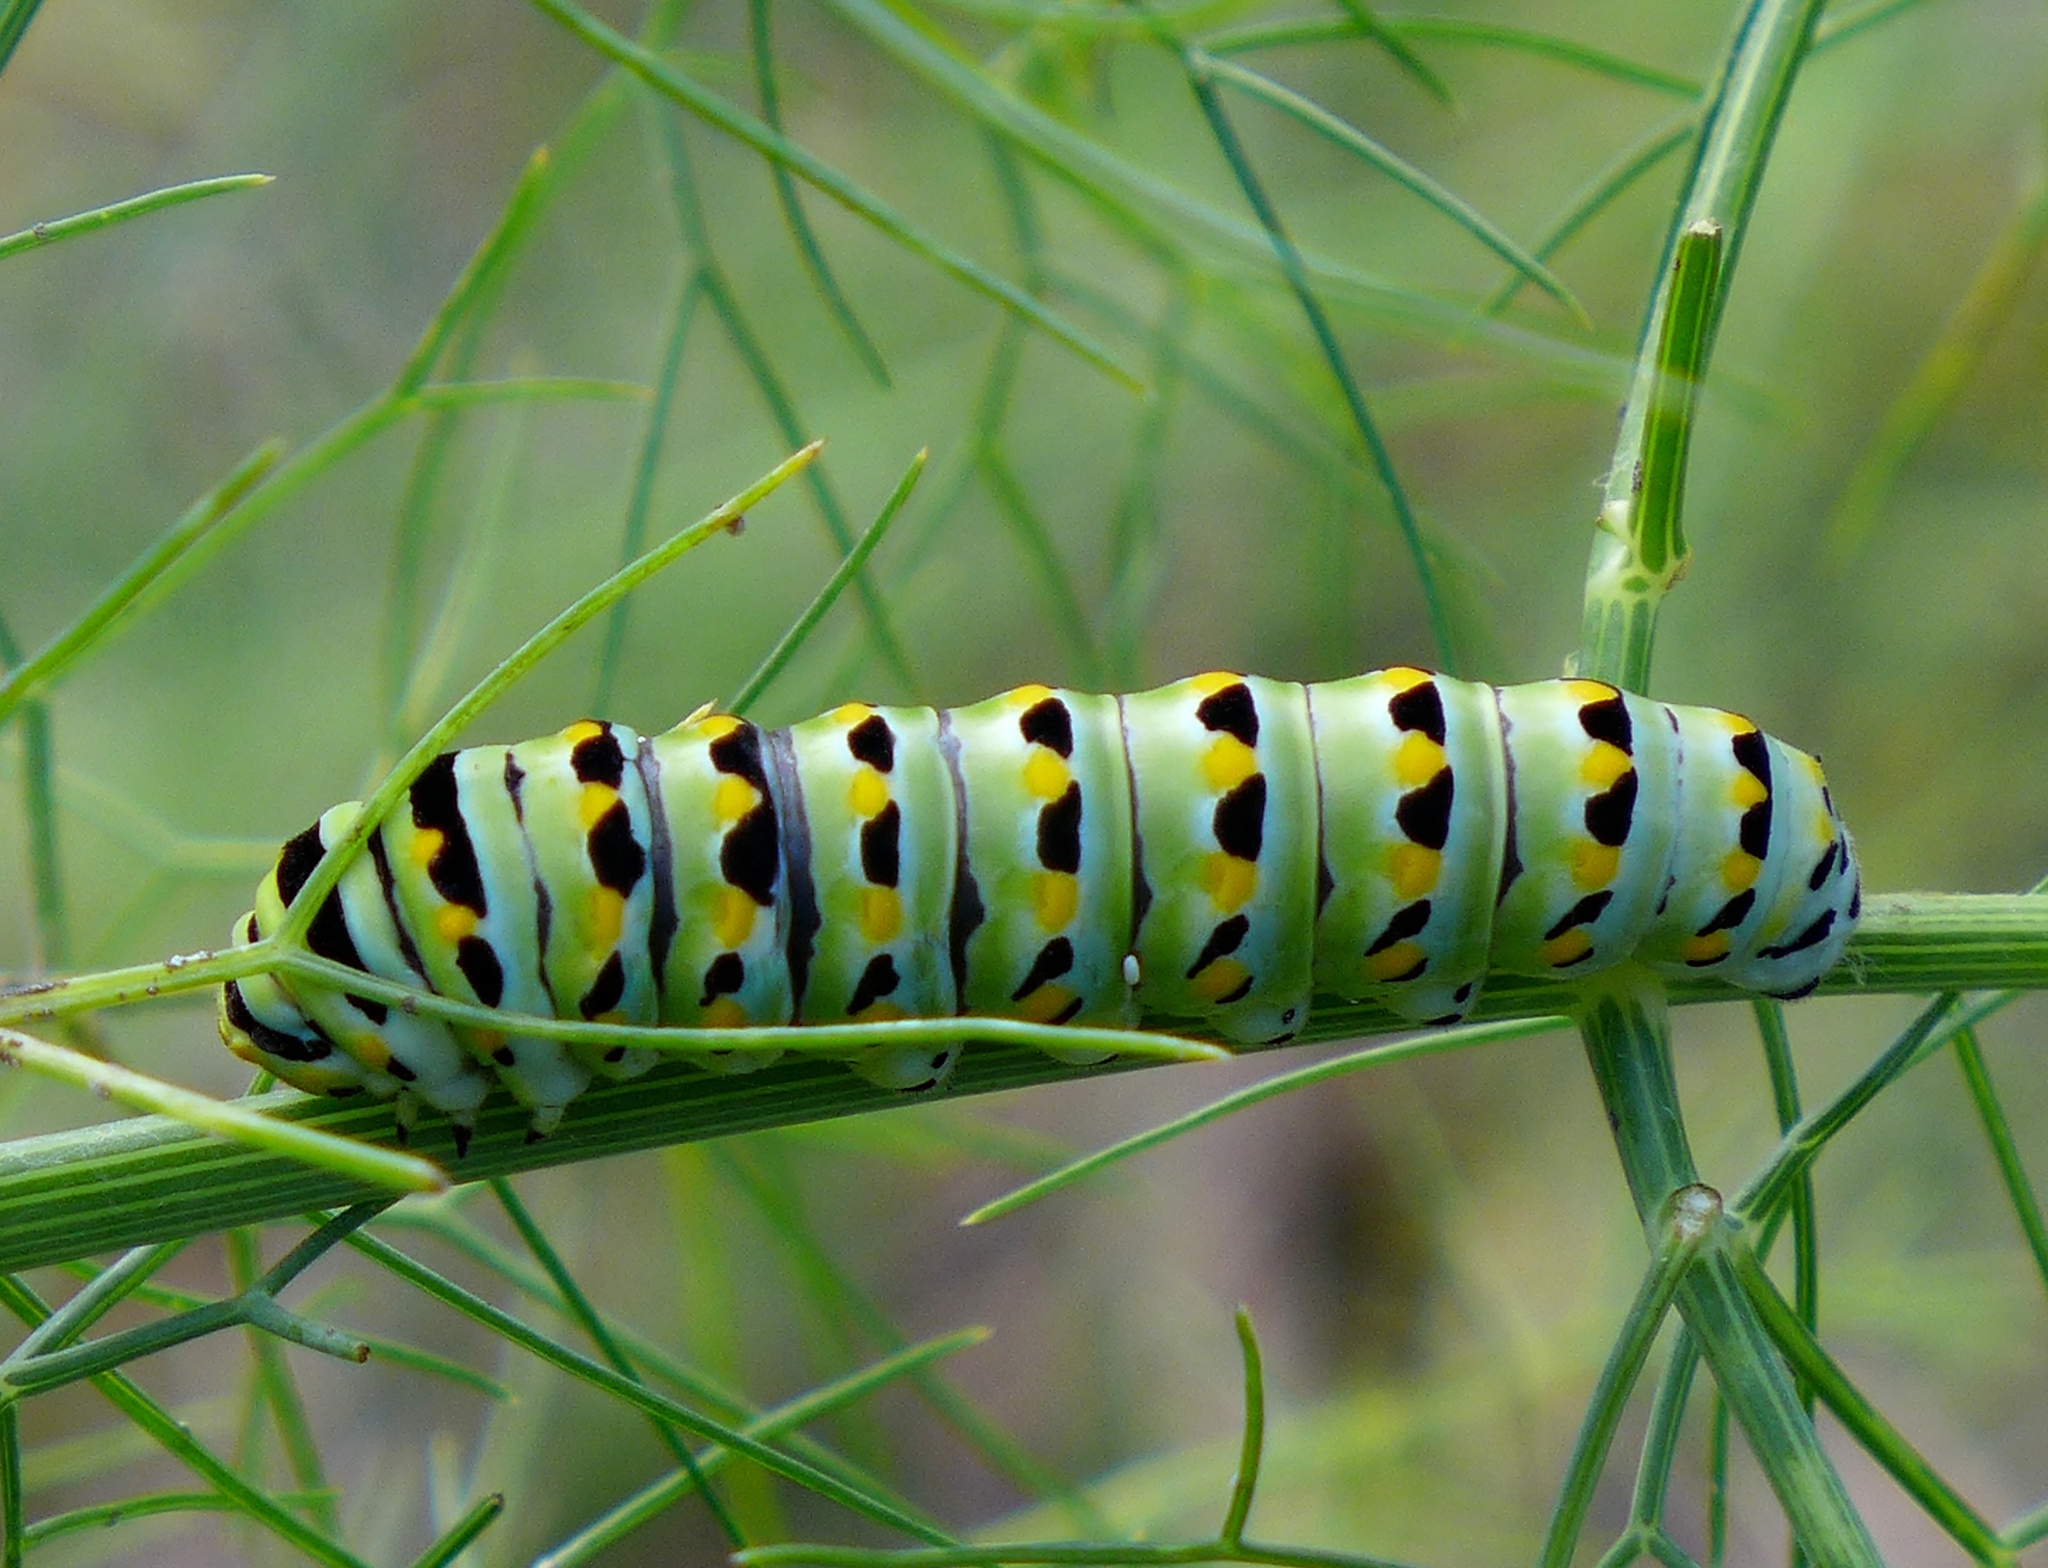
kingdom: Animalia
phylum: Arthropoda
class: Insecta
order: Lepidoptera
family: Papilionidae
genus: Papilio
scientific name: Papilio zelicaon
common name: Anise swallowtail
